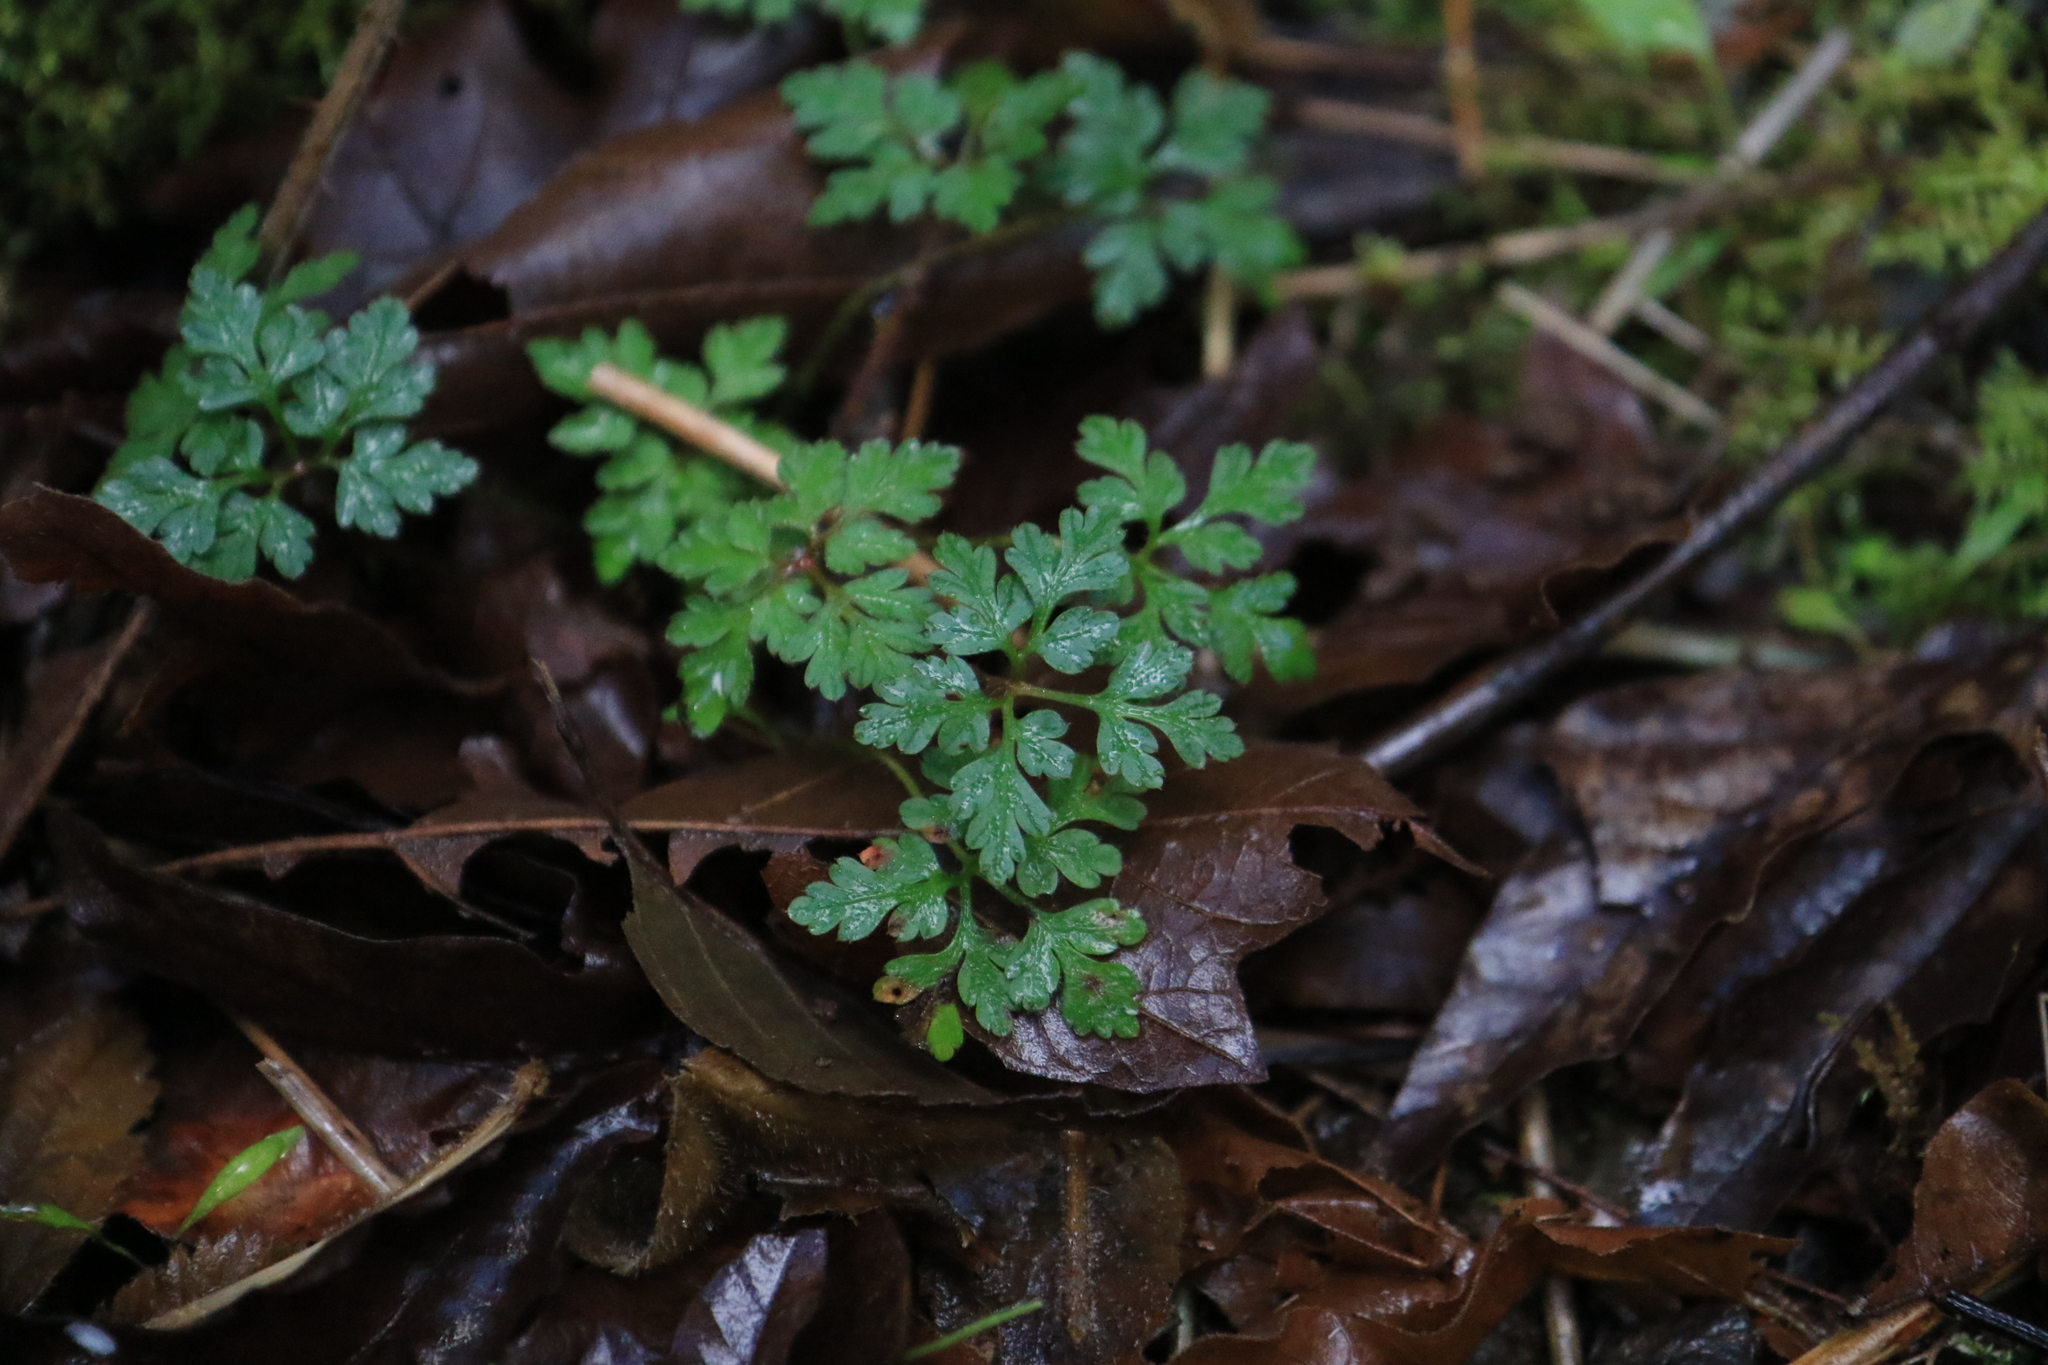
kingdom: Plantae
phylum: Tracheophyta
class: Magnoliopsida
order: Geraniales
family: Geraniaceae
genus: Geranium
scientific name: Geranium robertianum
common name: Herb-robert
